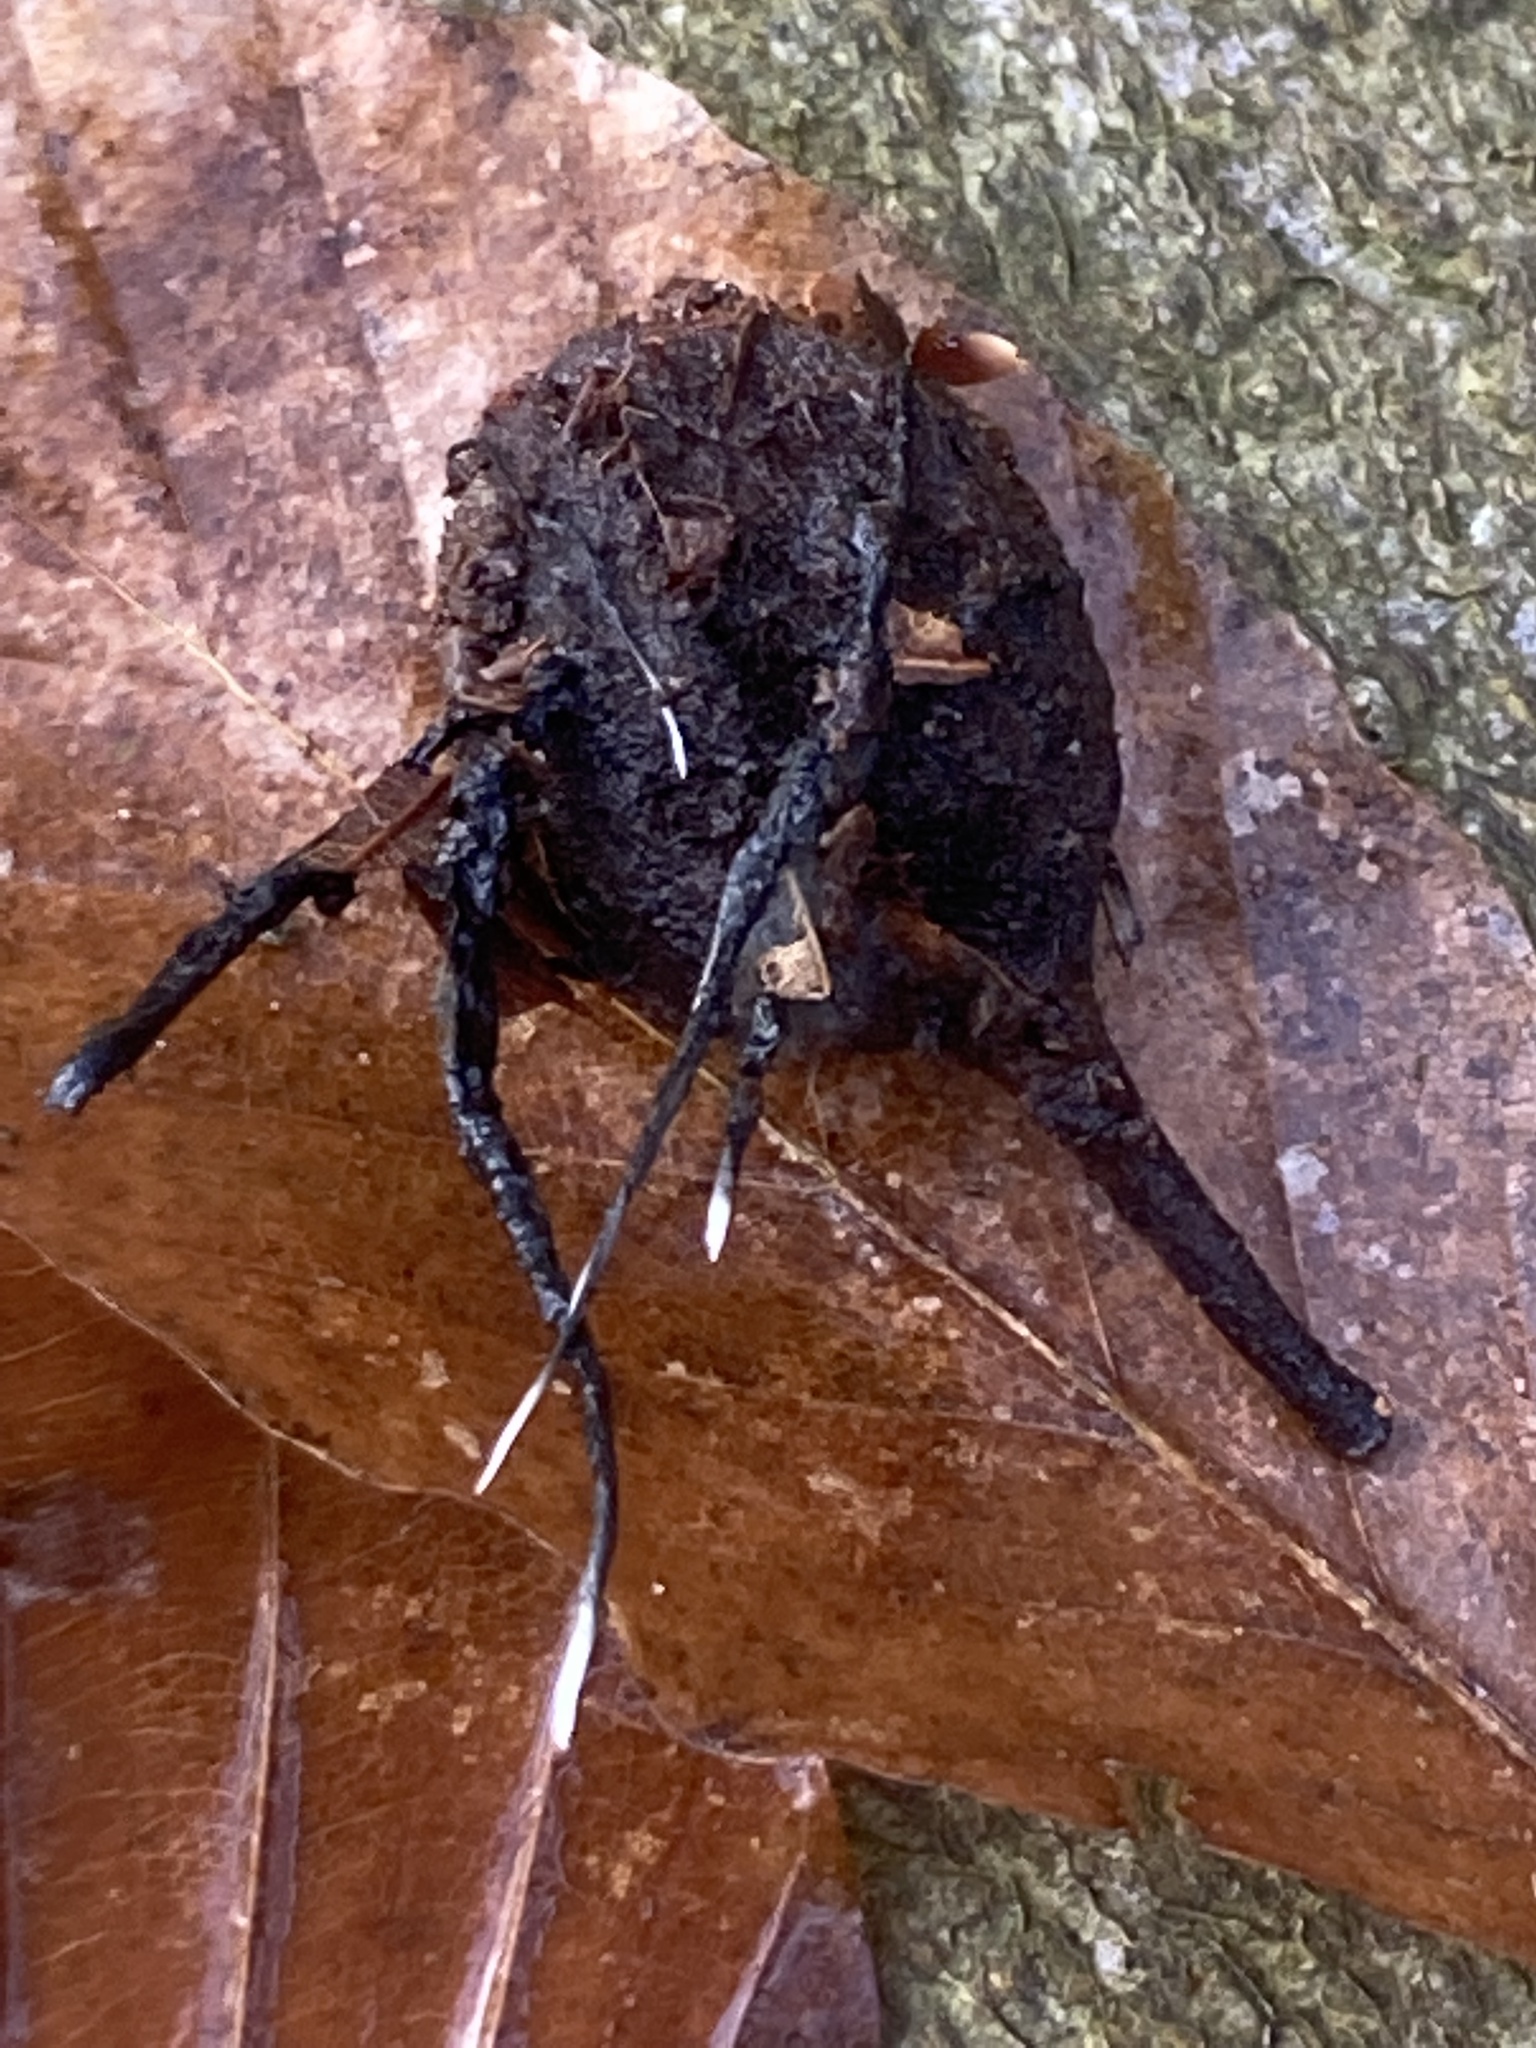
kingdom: Fungi
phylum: Ascomycota
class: Sordariomycetes
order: Xylariales
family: Xylariaceae
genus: Xylaria
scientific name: Xylaria carpophila
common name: Beechmast candlesnuff
